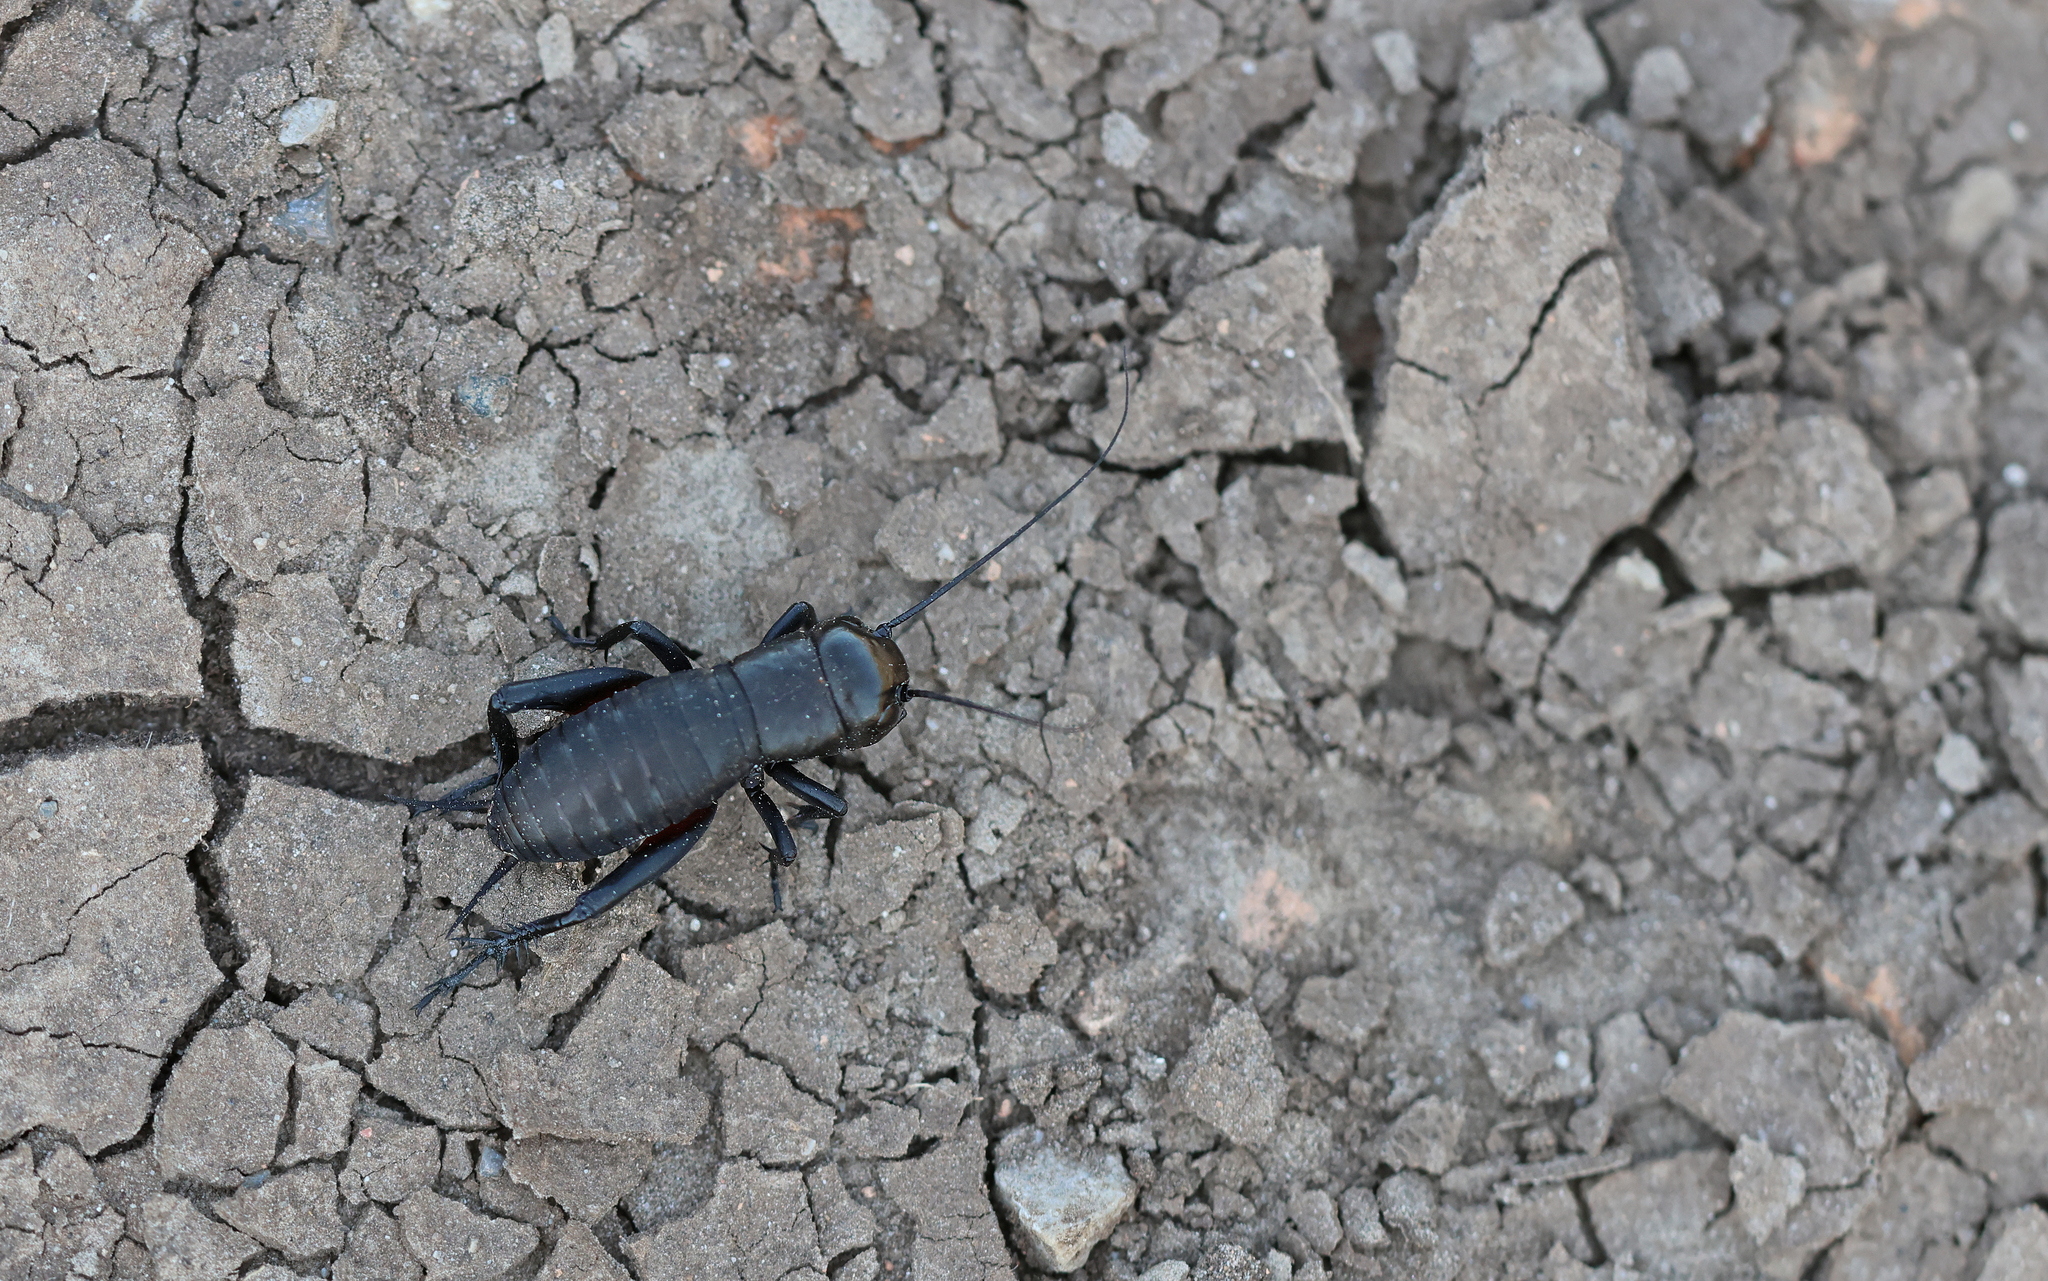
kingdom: Animalia
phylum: Arthropoda
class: Insecta
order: Orthoptera
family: Gryllidae
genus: Gryllus
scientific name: Gryllus campestris
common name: Field cricket
